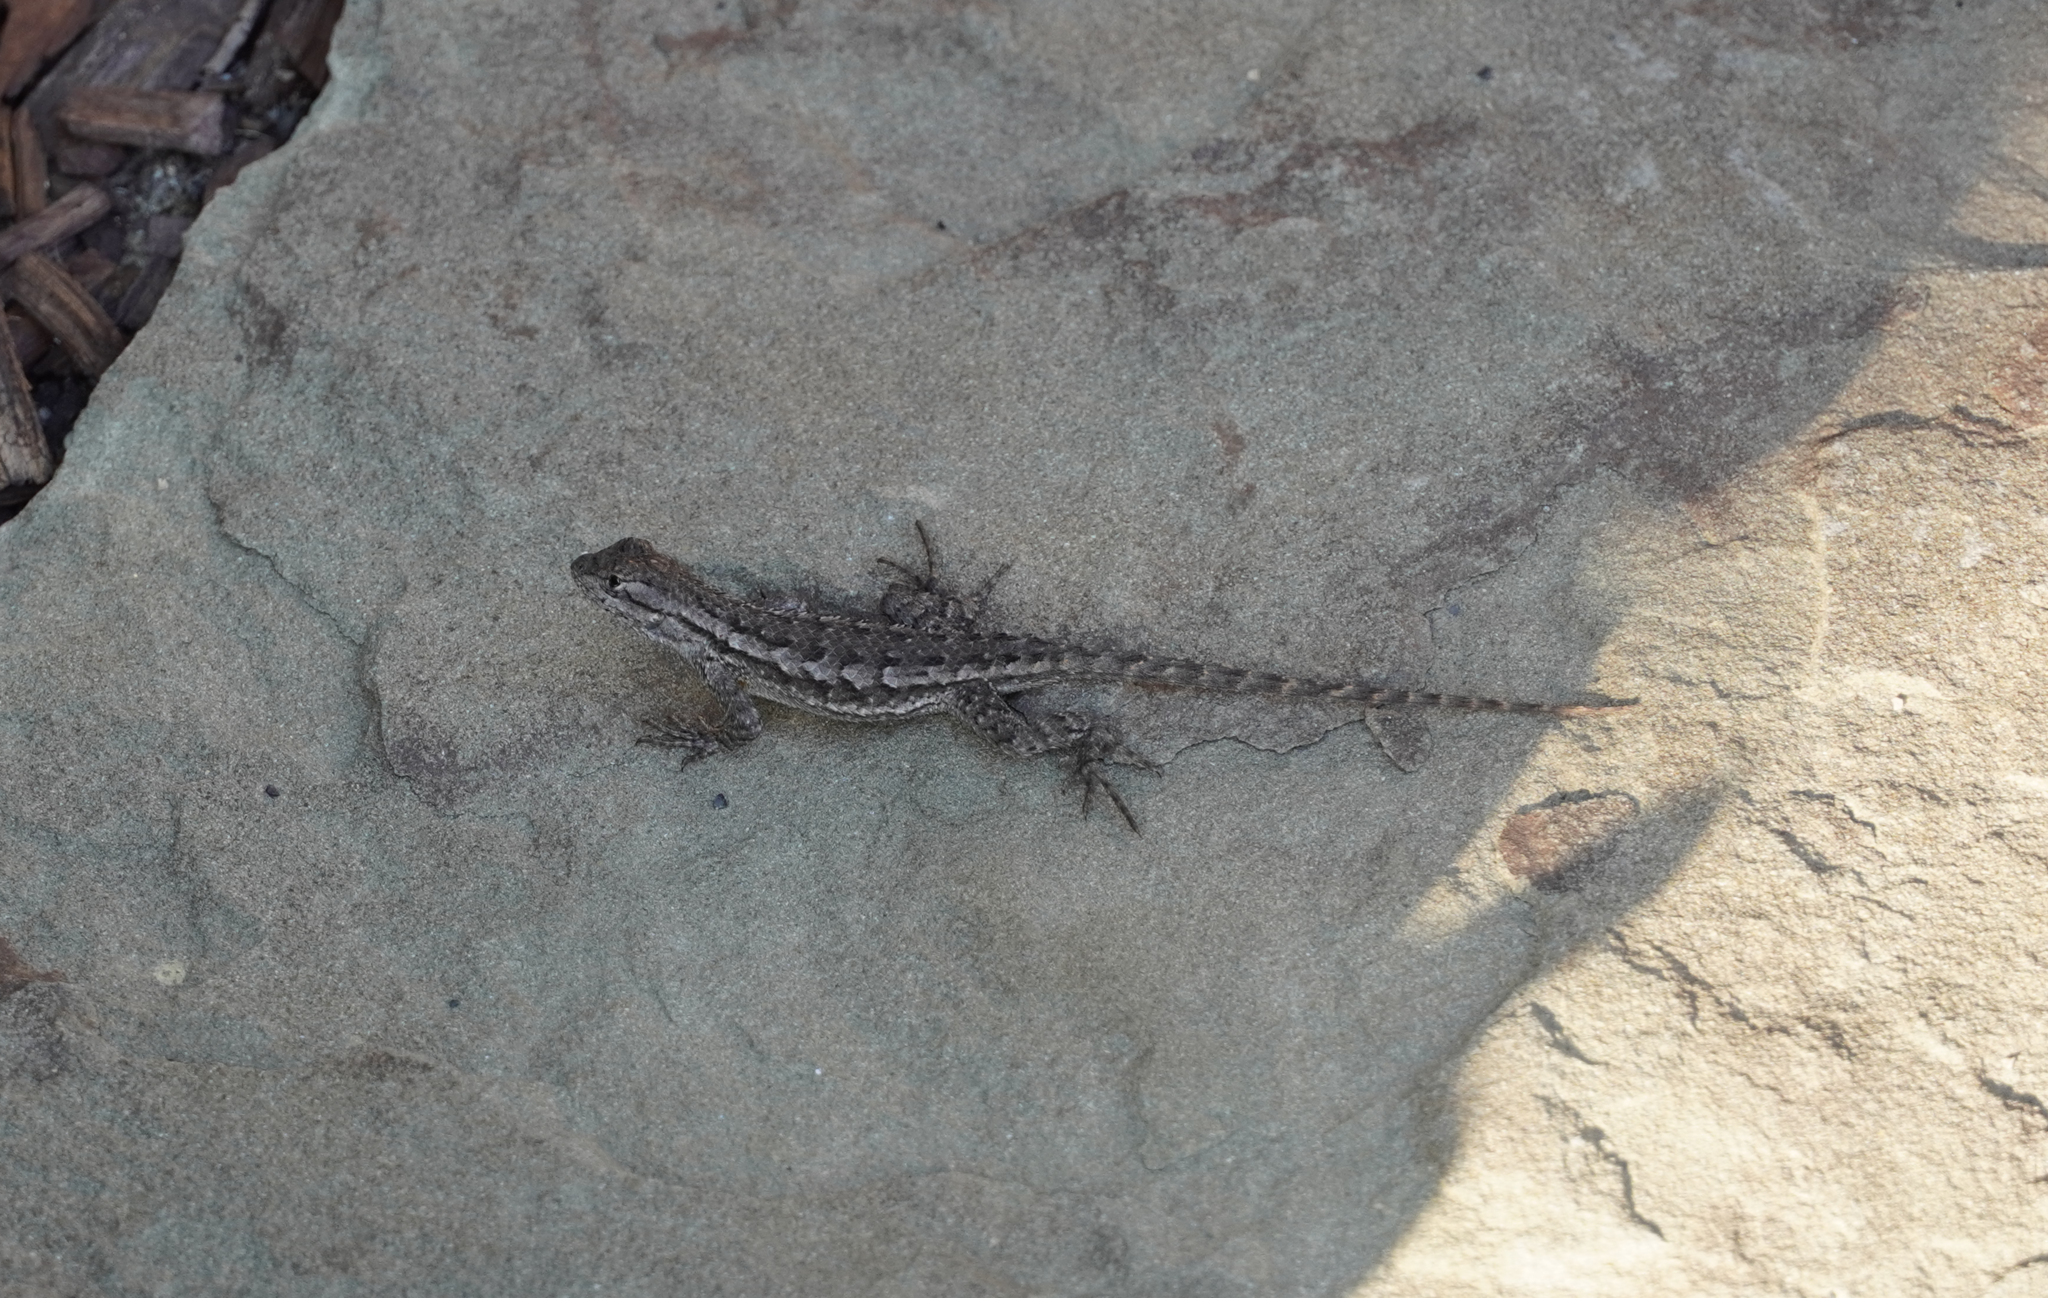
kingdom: Animalia
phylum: Chordata
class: Squamata
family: Phrynosomatidae
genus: Sceloporus
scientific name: Sceloporus occidentalis
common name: Western fence lizard
